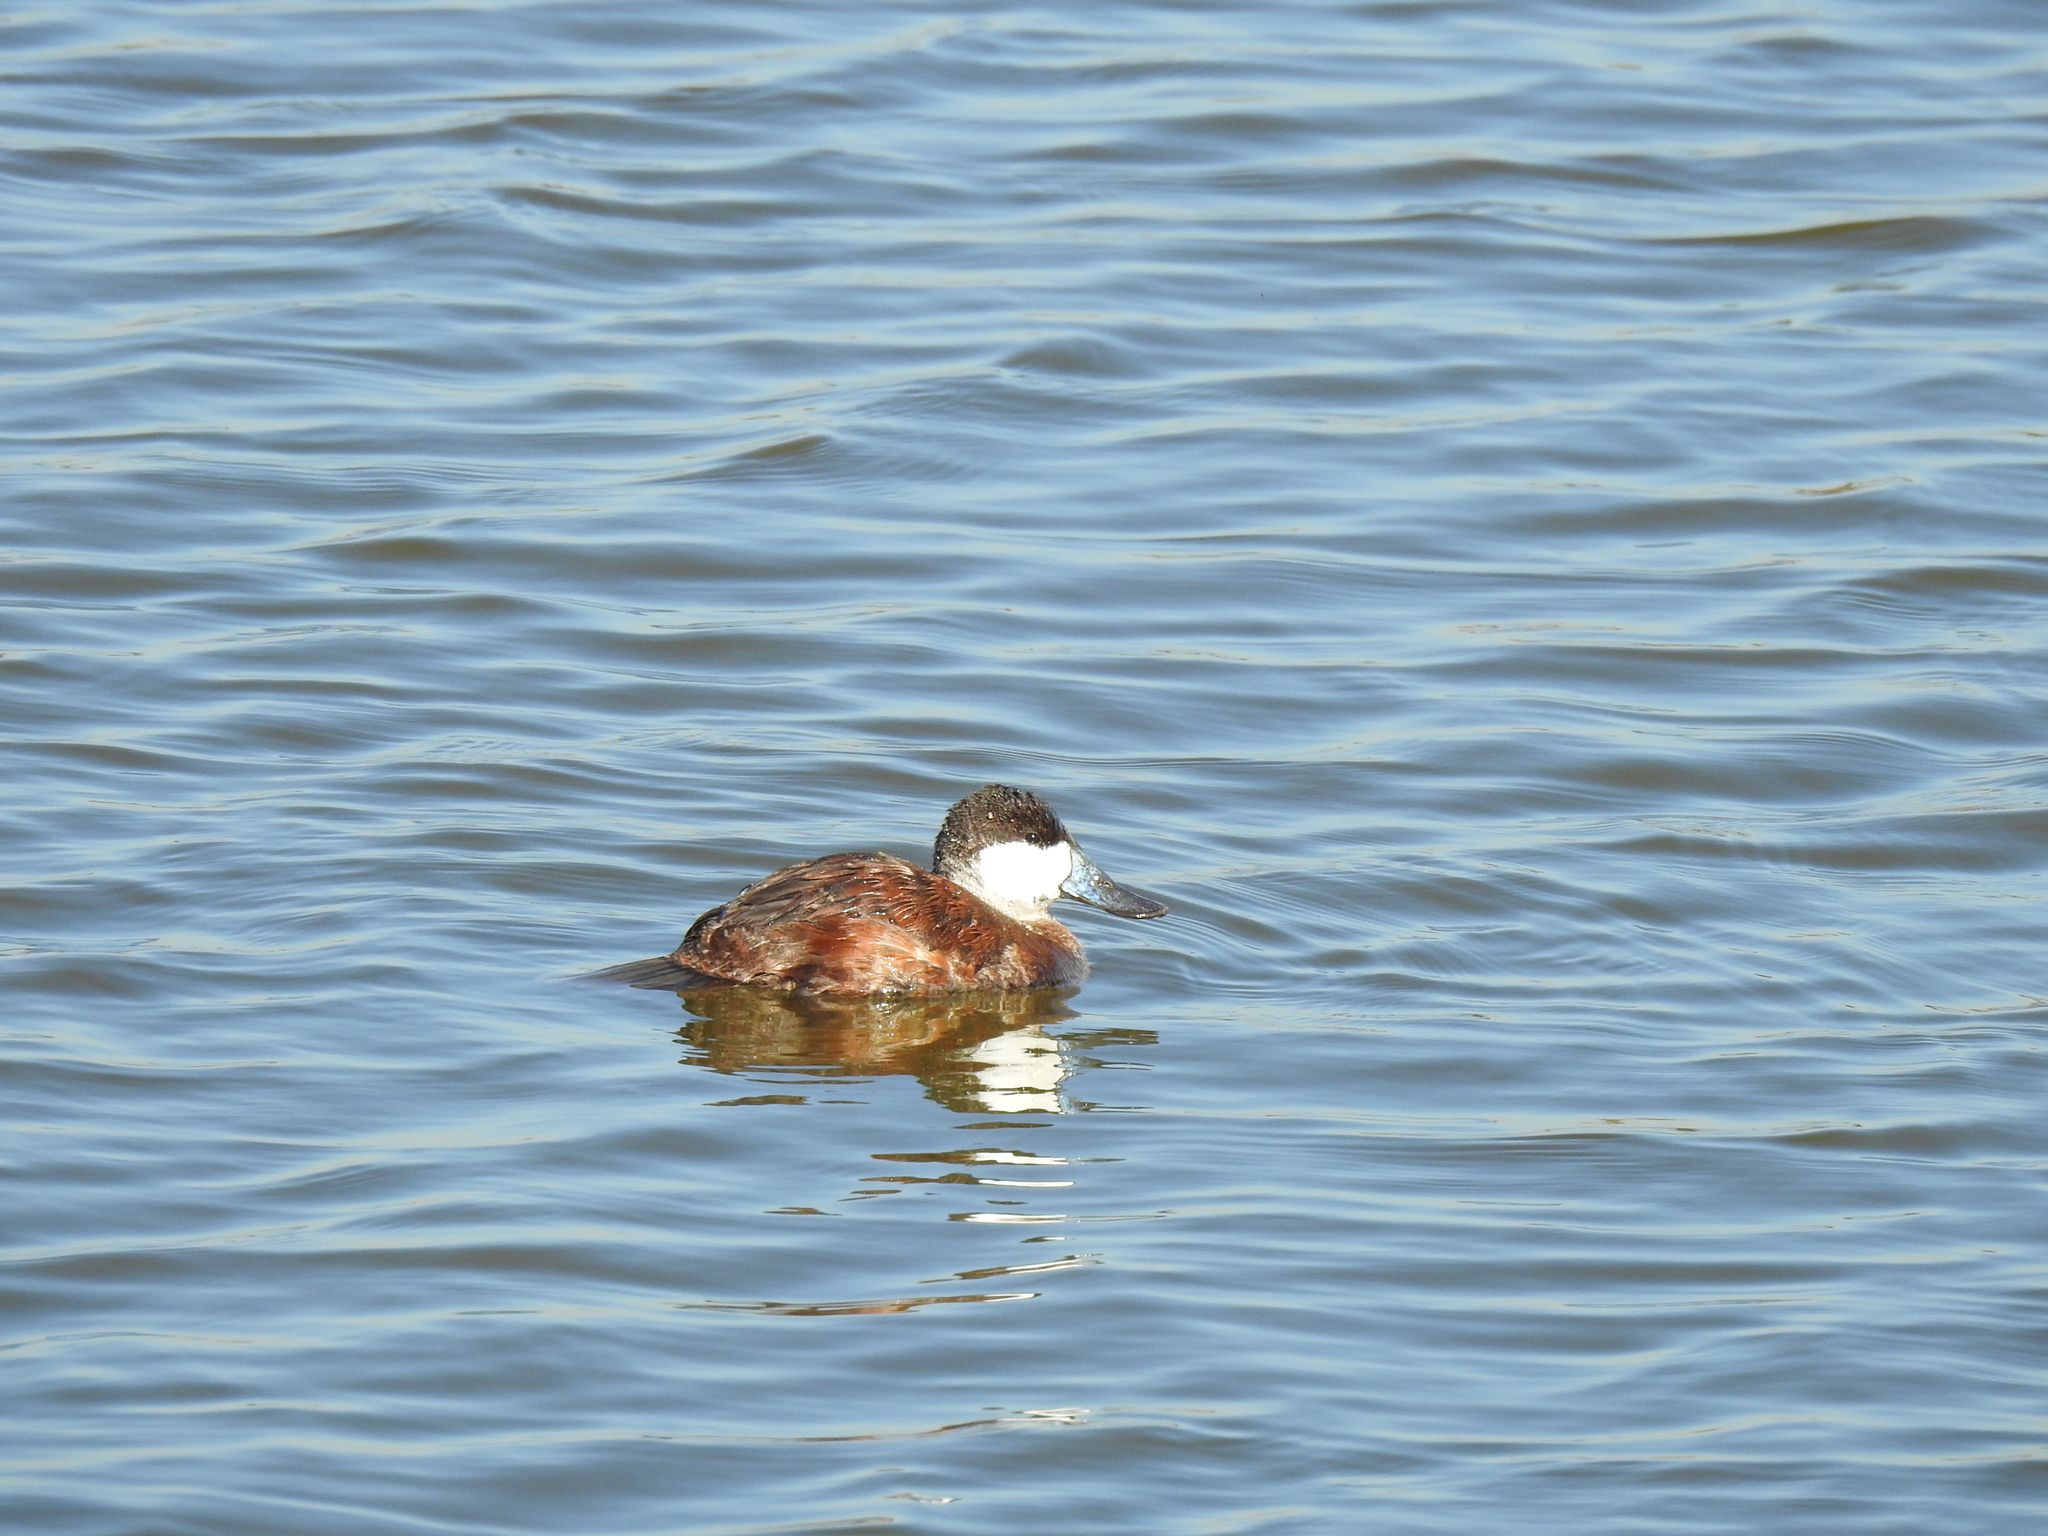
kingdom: Animalia
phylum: Chordata
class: Aves
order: Anseriformes
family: Anatidae
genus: Oxyura
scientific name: Oxyura jamaicensis
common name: Ruddy duck
